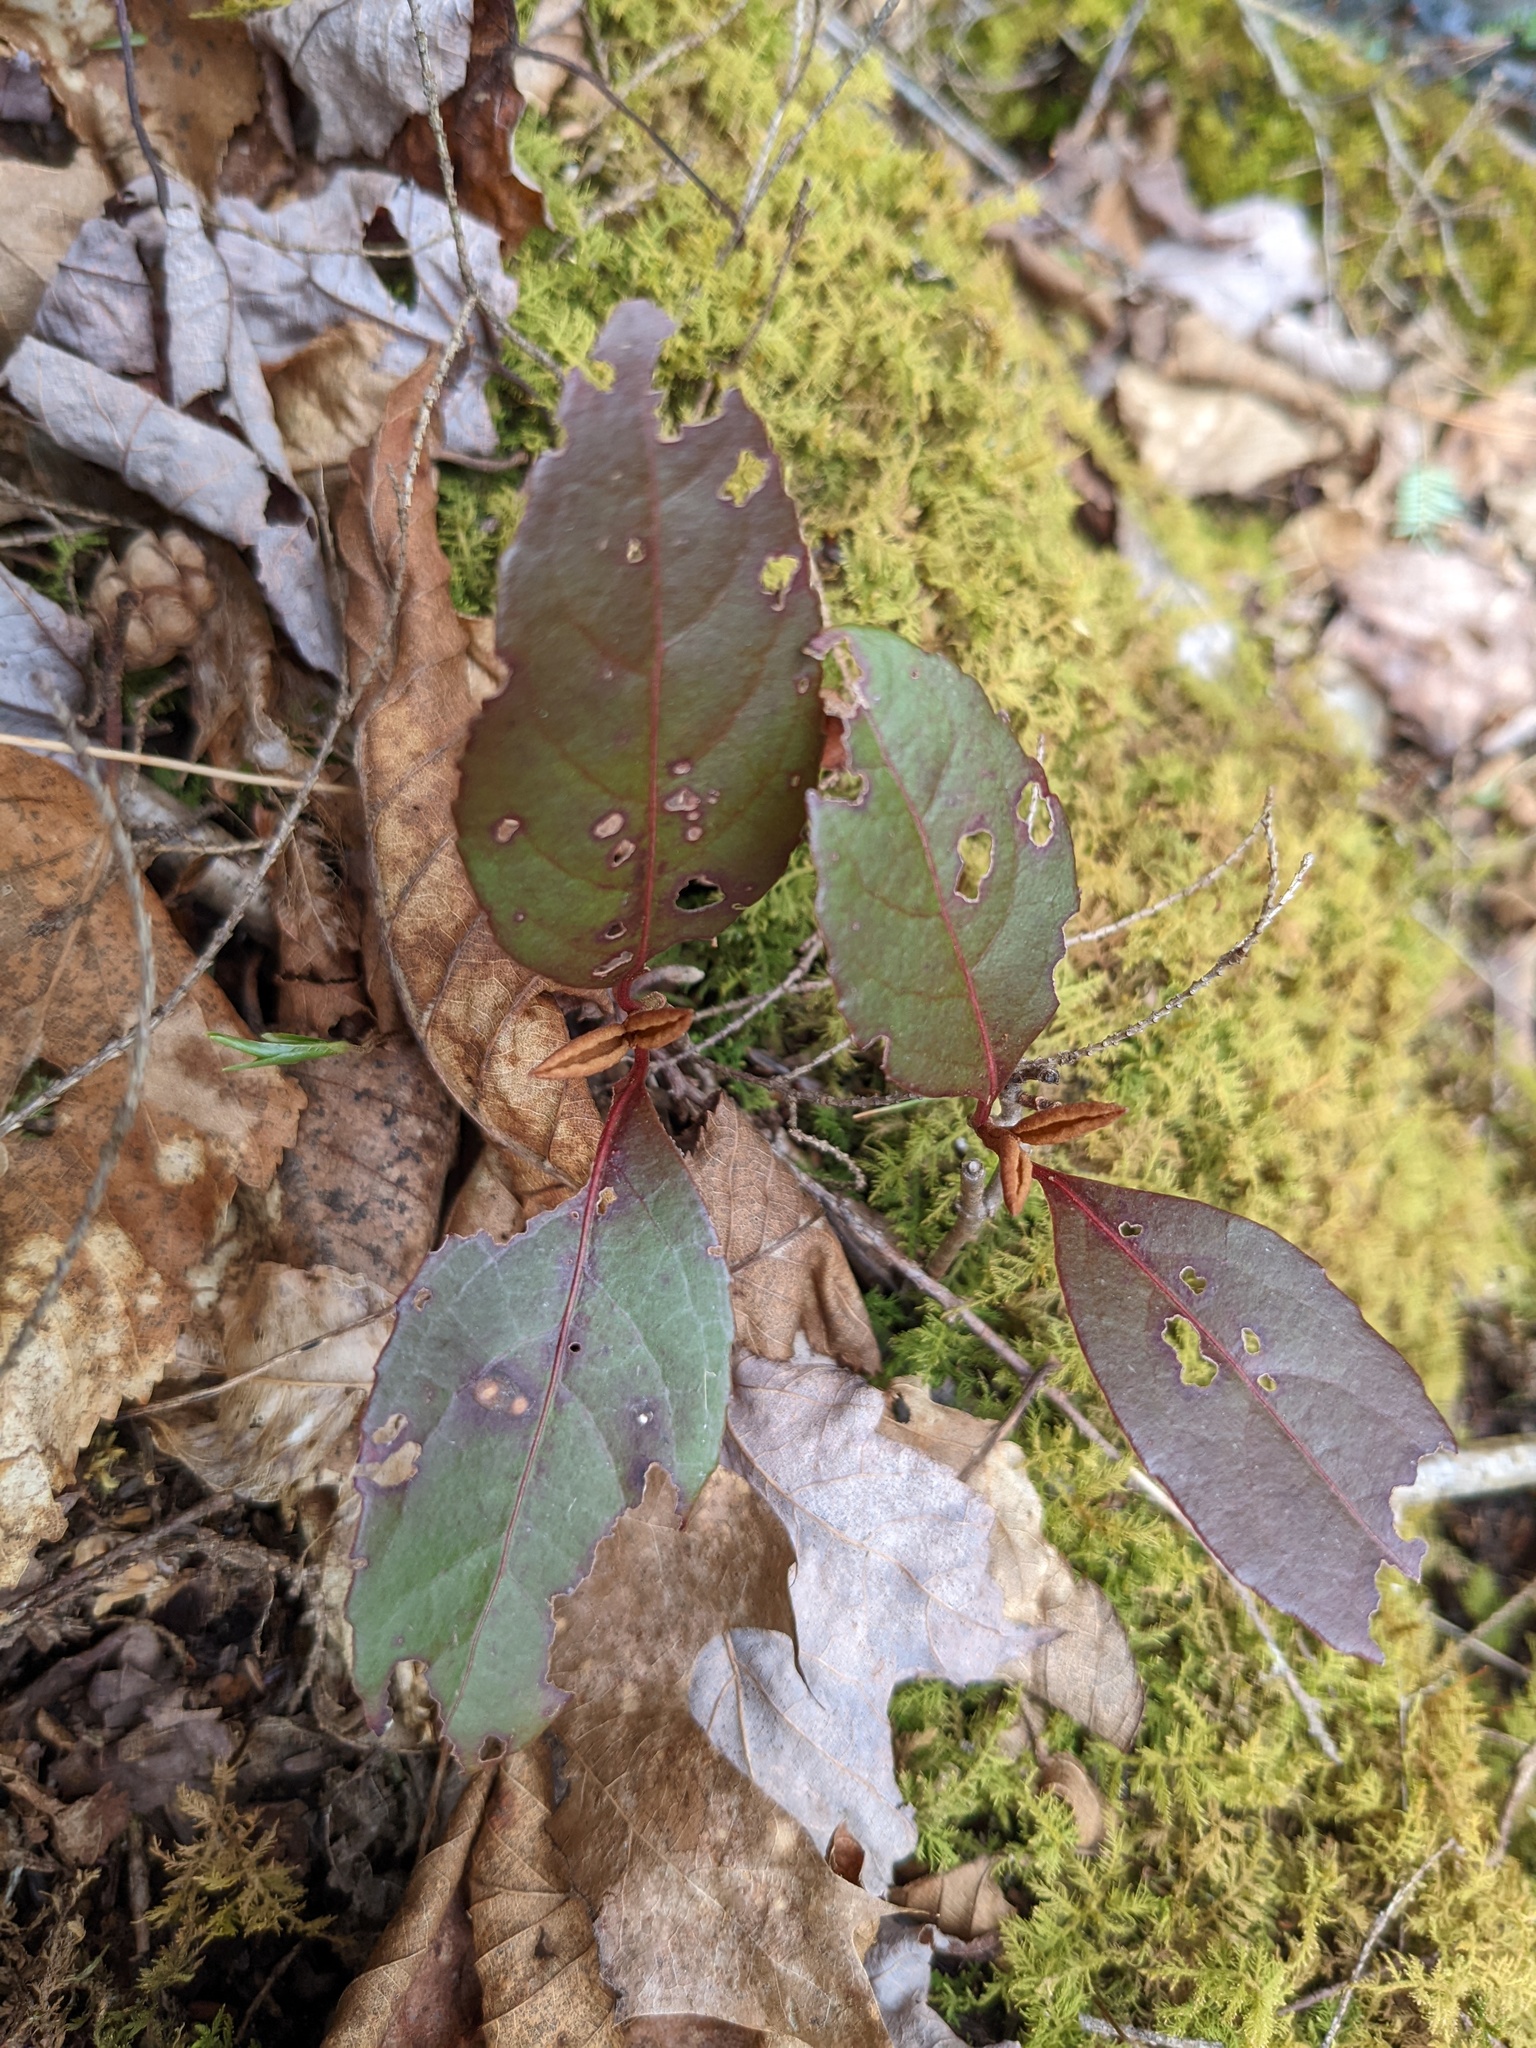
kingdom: Plantae
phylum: Tracheophyta
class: Magnoliopsida
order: Dipsacales
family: Viburnaceae
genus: Viburnum
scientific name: Viburnum cassinoides
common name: Swamp haw
